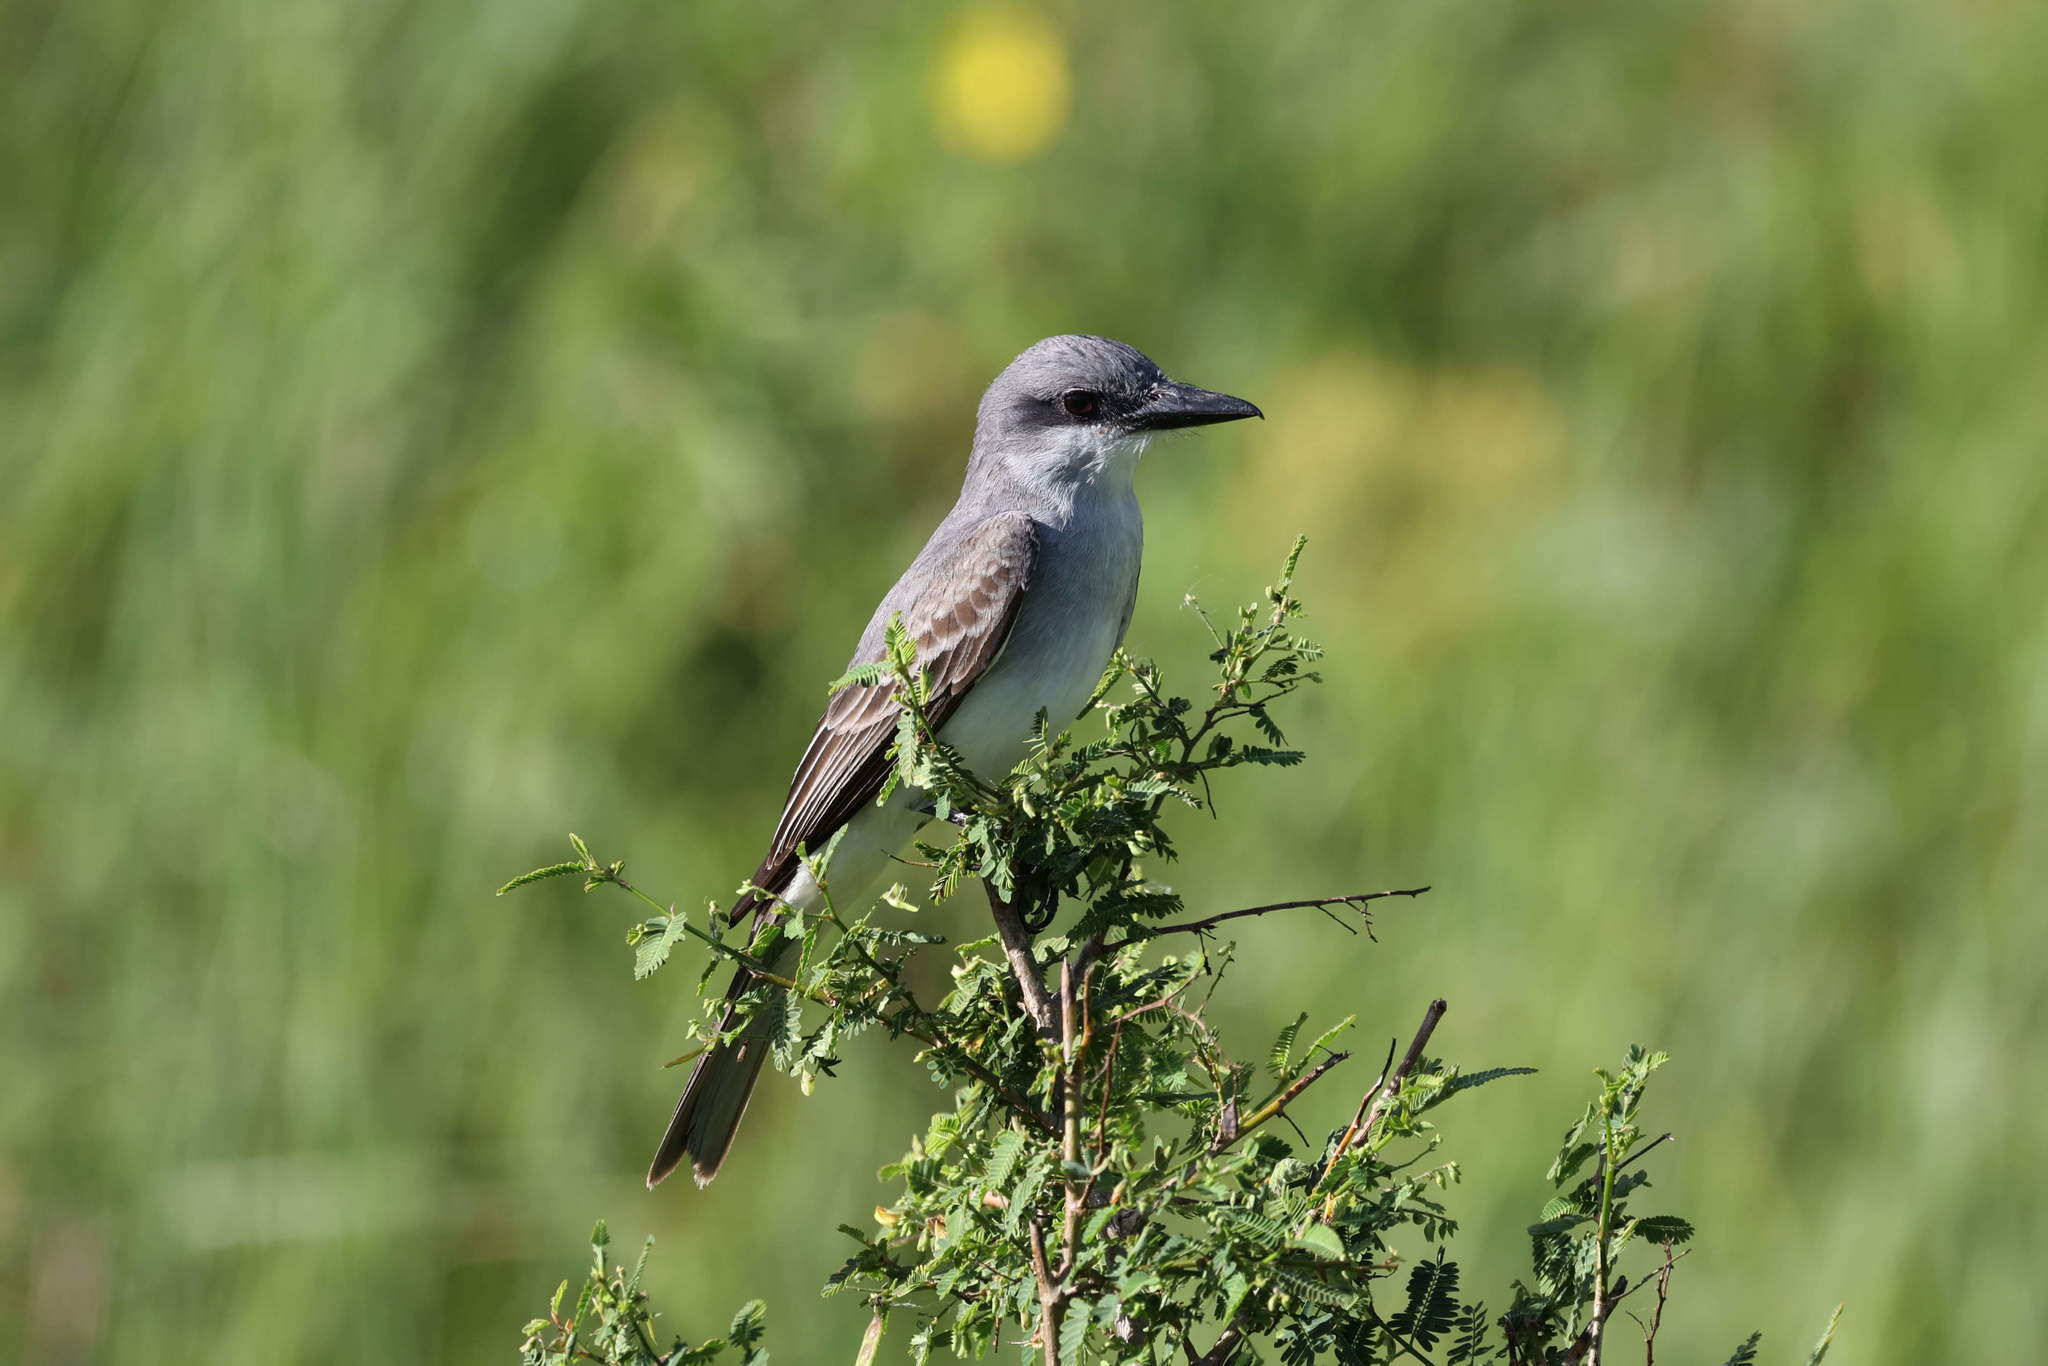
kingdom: Animalia
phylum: Chordata
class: Aves
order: Passeriformes
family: Tyrannidae
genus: Tyrannus
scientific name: Tyrannus dominicensis
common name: Gray kingbird
